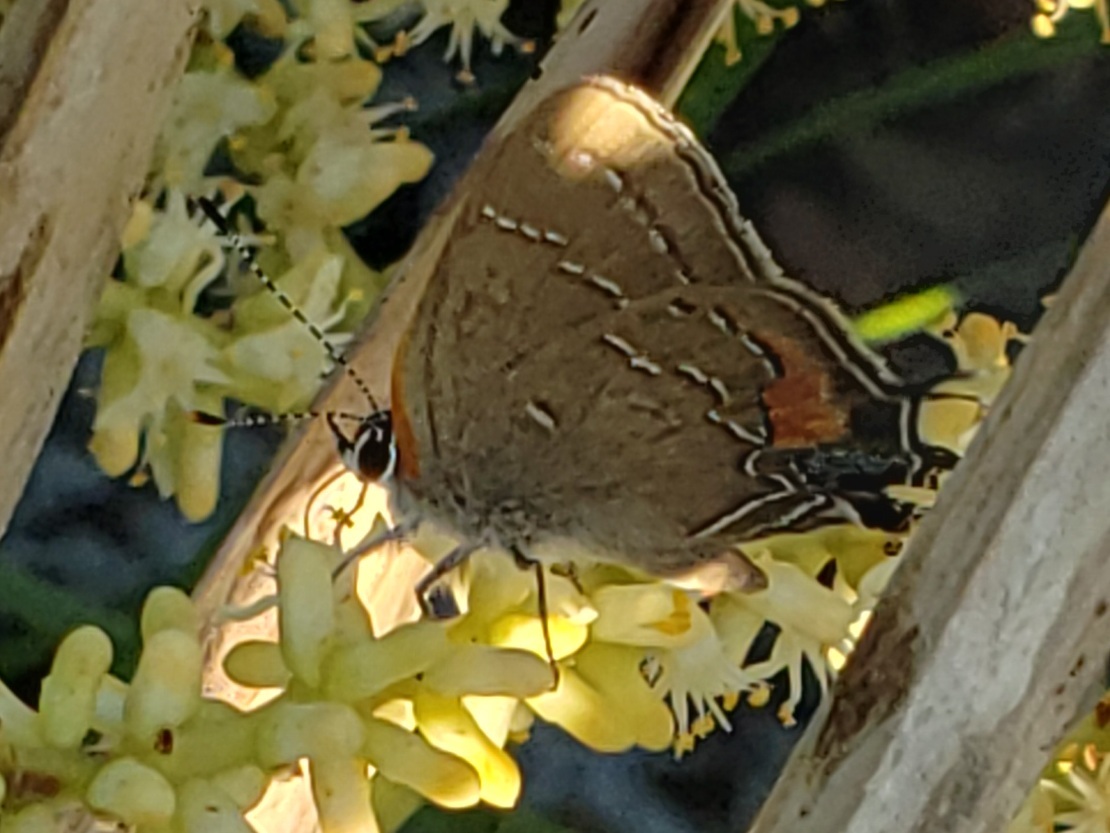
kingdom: Animalia
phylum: Arthropoda
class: Insecta
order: Lepidoptera
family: Lycaenidae
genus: Fixsenia
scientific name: Fixsenia favonius
